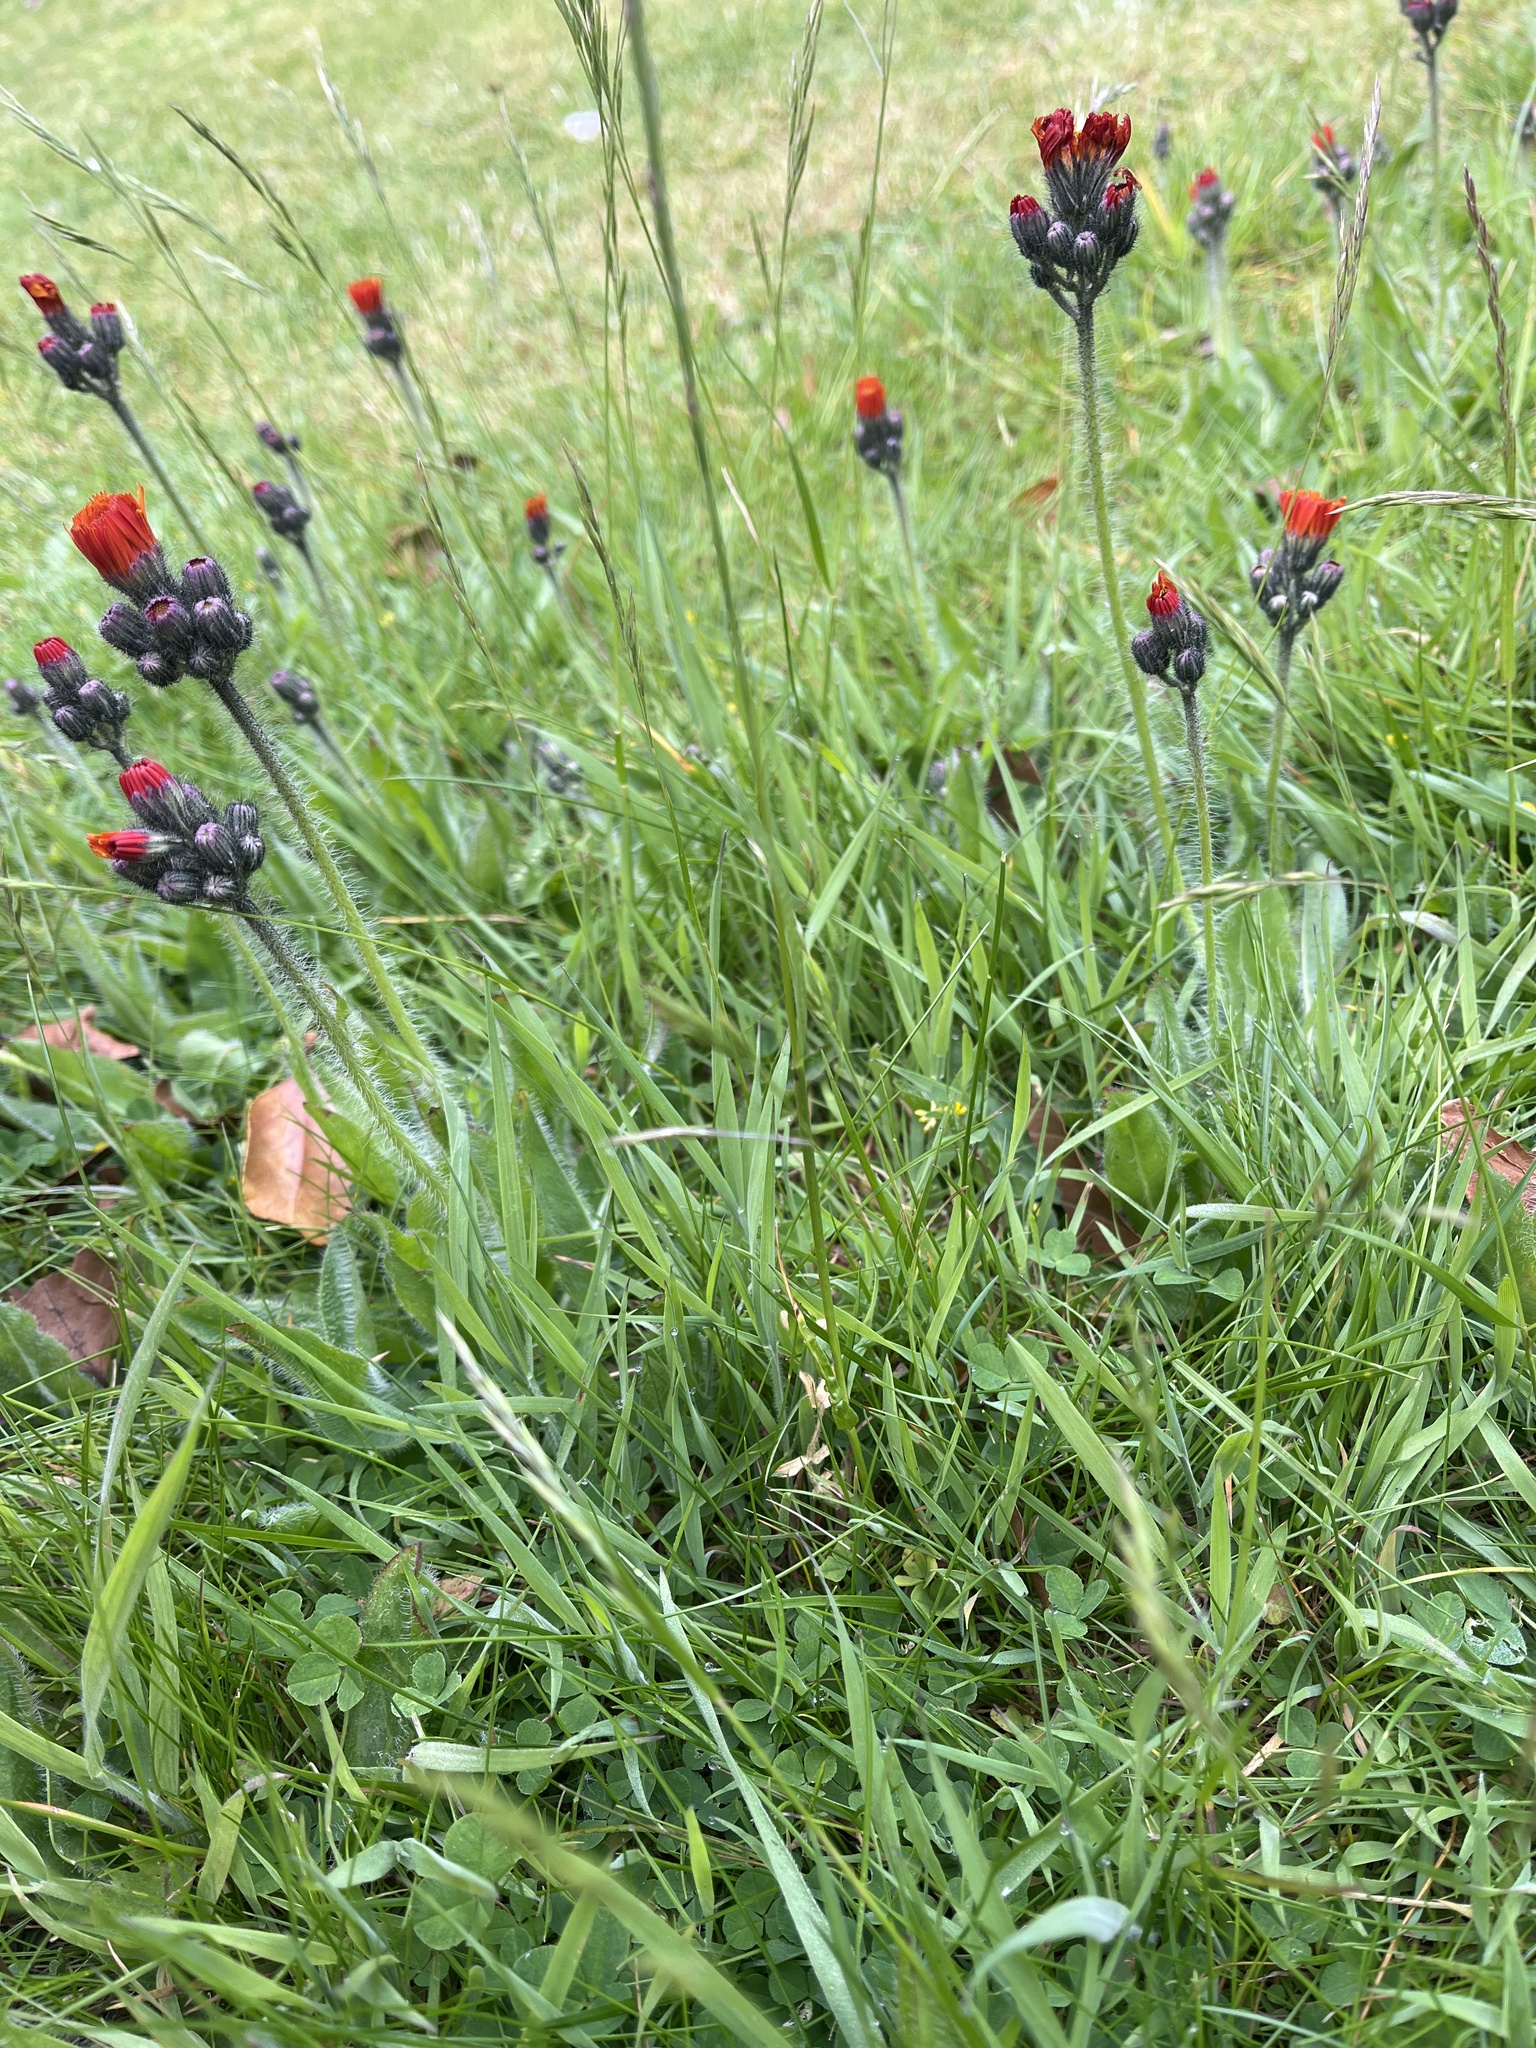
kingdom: Plantae
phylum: Tracheophyta
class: Liliopsida
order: Poales
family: Poaceae
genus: Lolium
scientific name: Lolium perenne
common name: Perennial ryegrass
